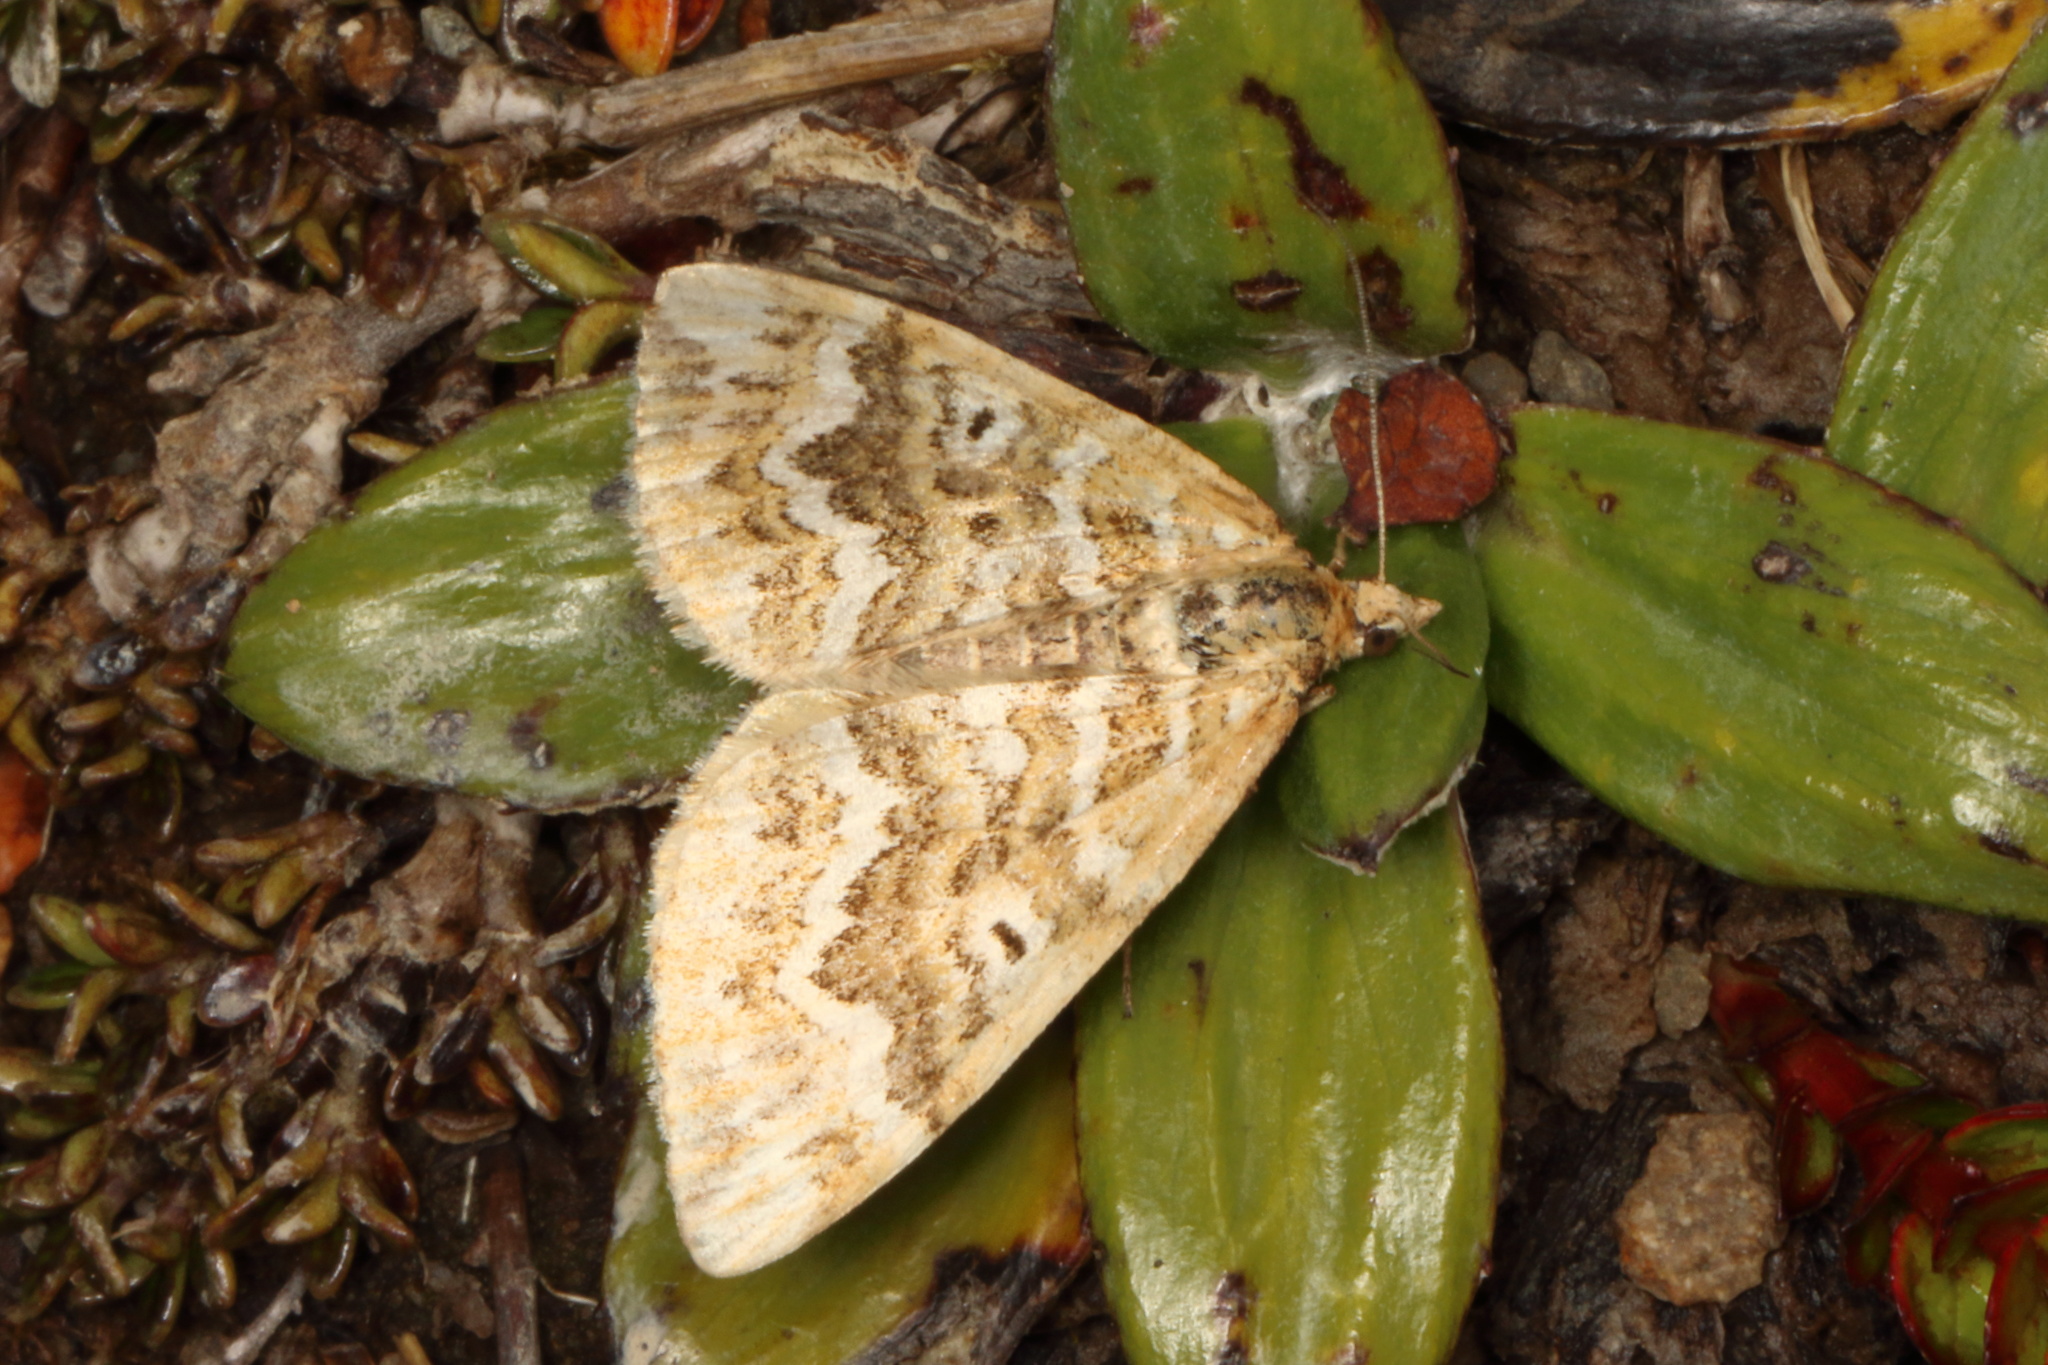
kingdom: Animalia
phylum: Arthropoda
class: Insecta
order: Lepidoptera
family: Geometridae
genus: Asaphodes
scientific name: Asaphodes clarata
